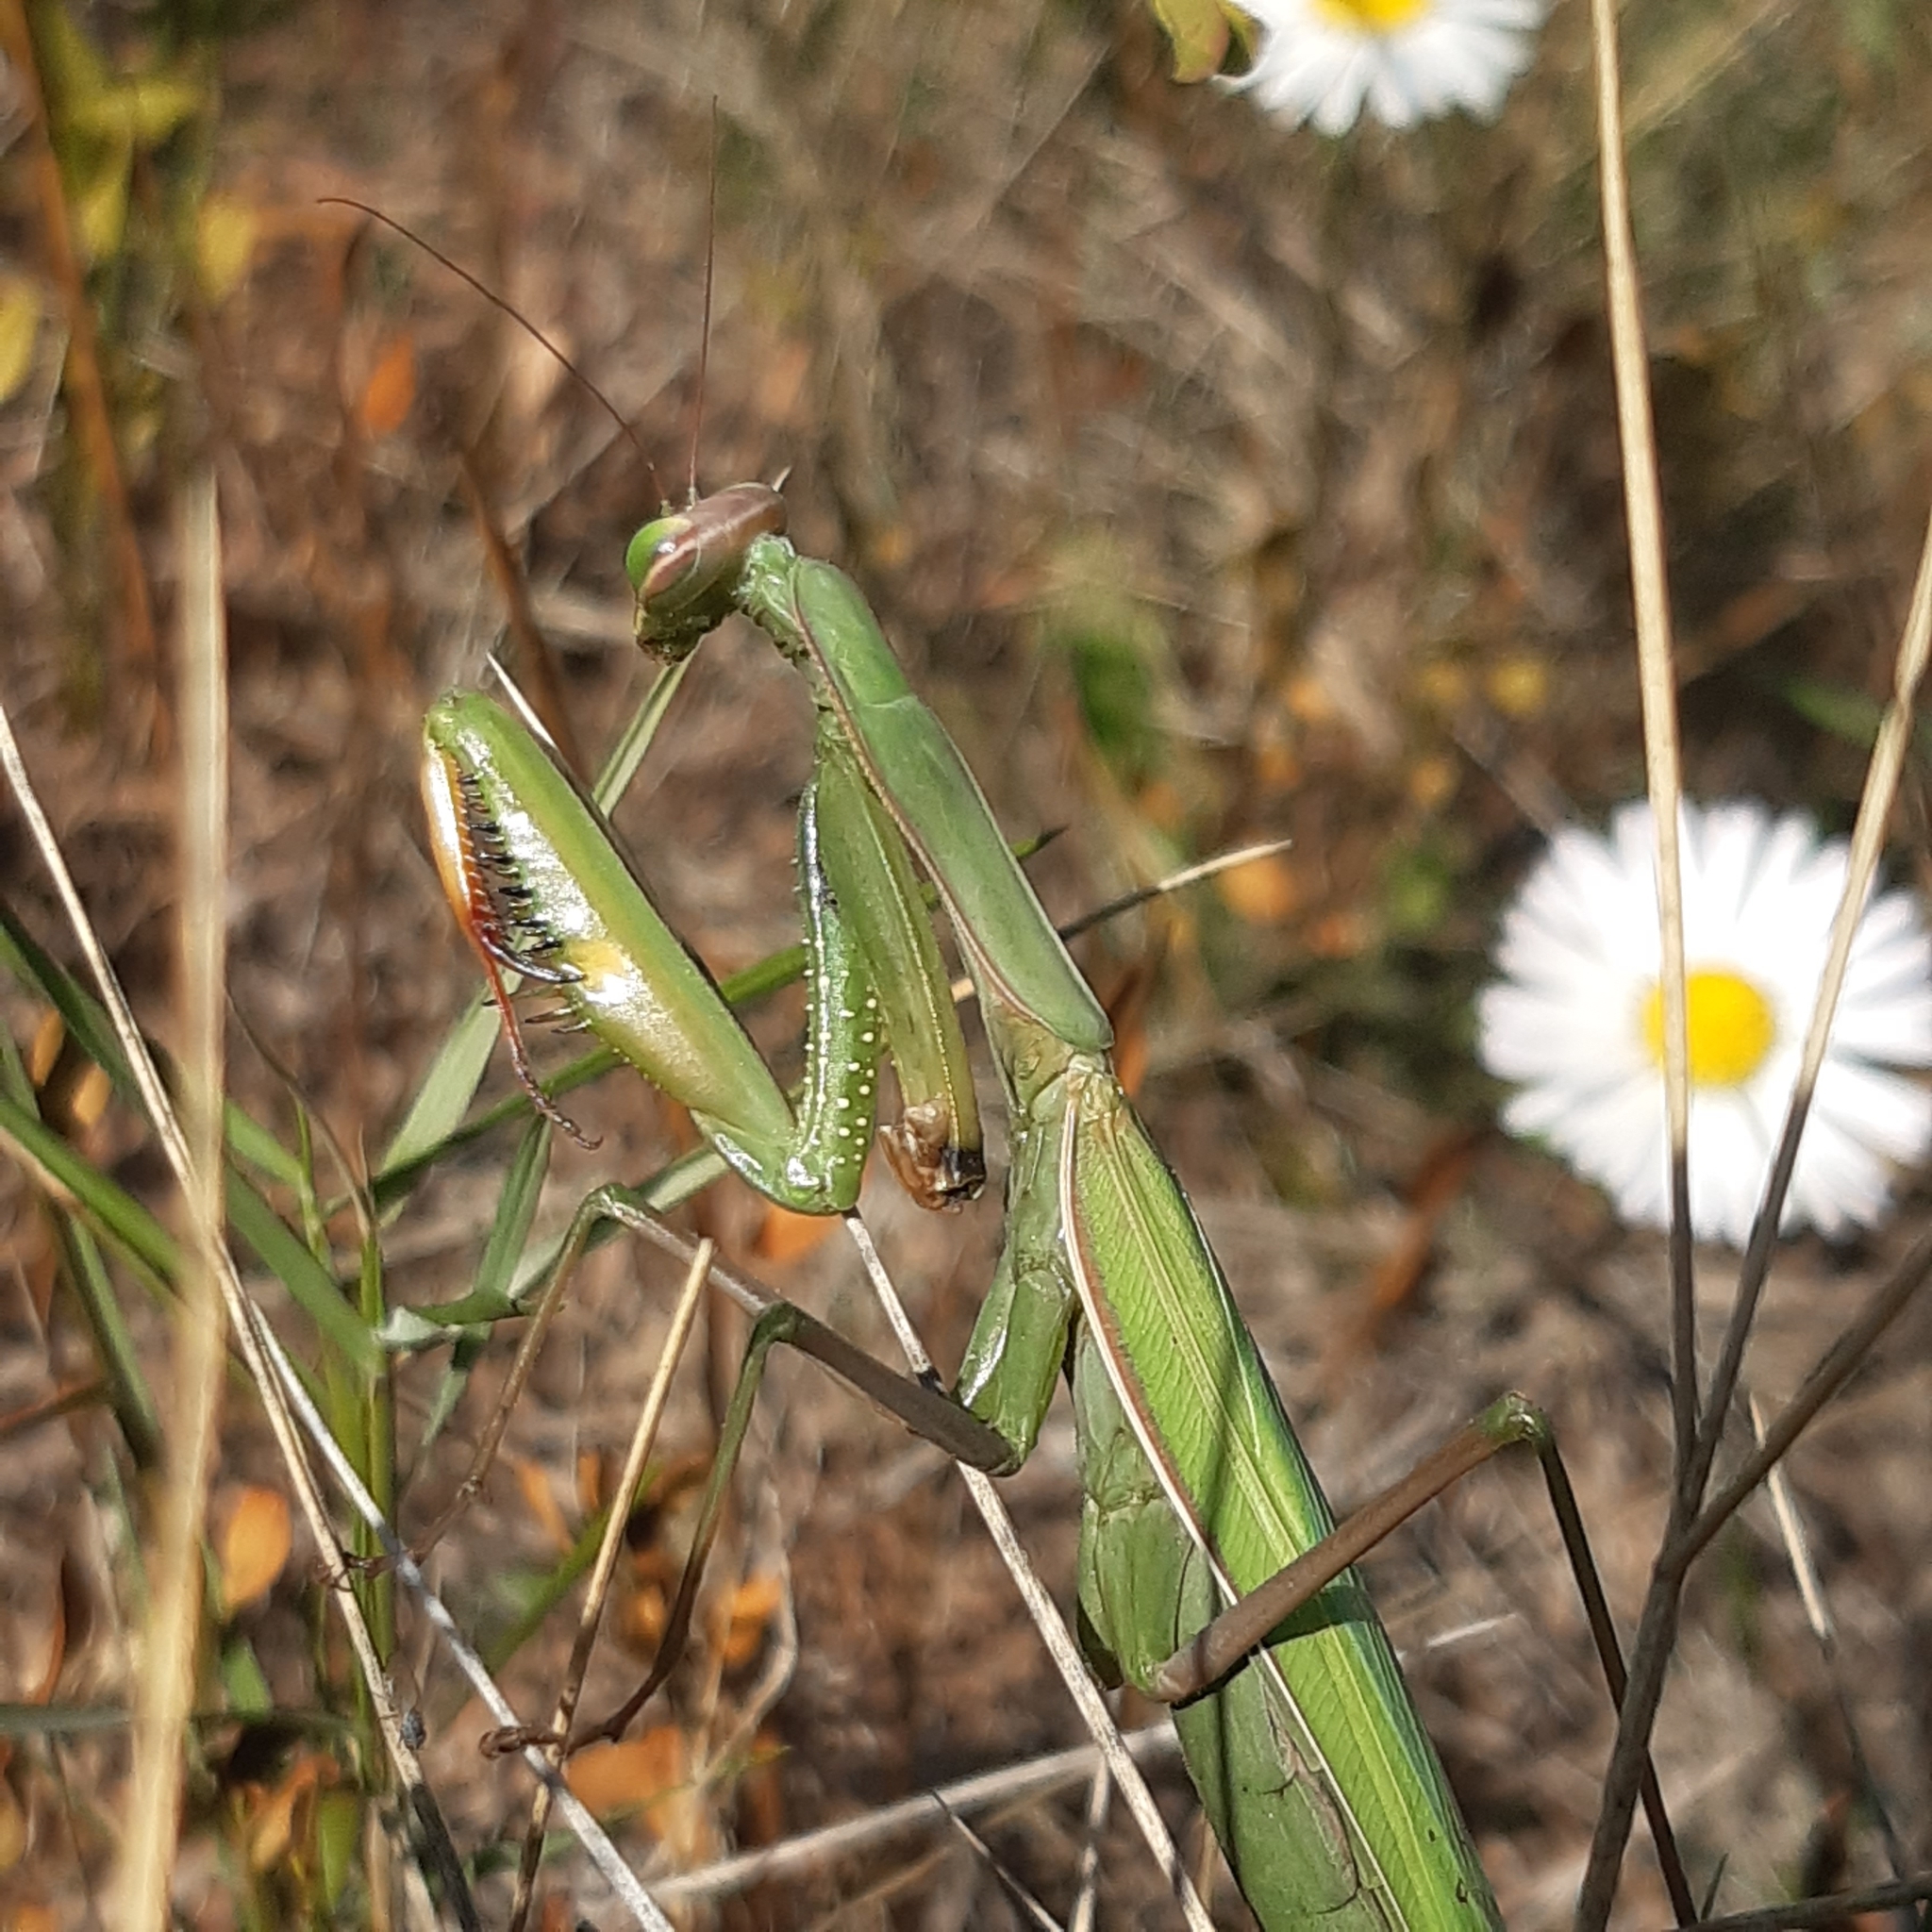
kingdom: Animalia
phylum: Arthropoda
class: Insecta
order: Mantodea
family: Mantidae
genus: Mantis
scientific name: Mantis religiosa
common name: Praying mantis
